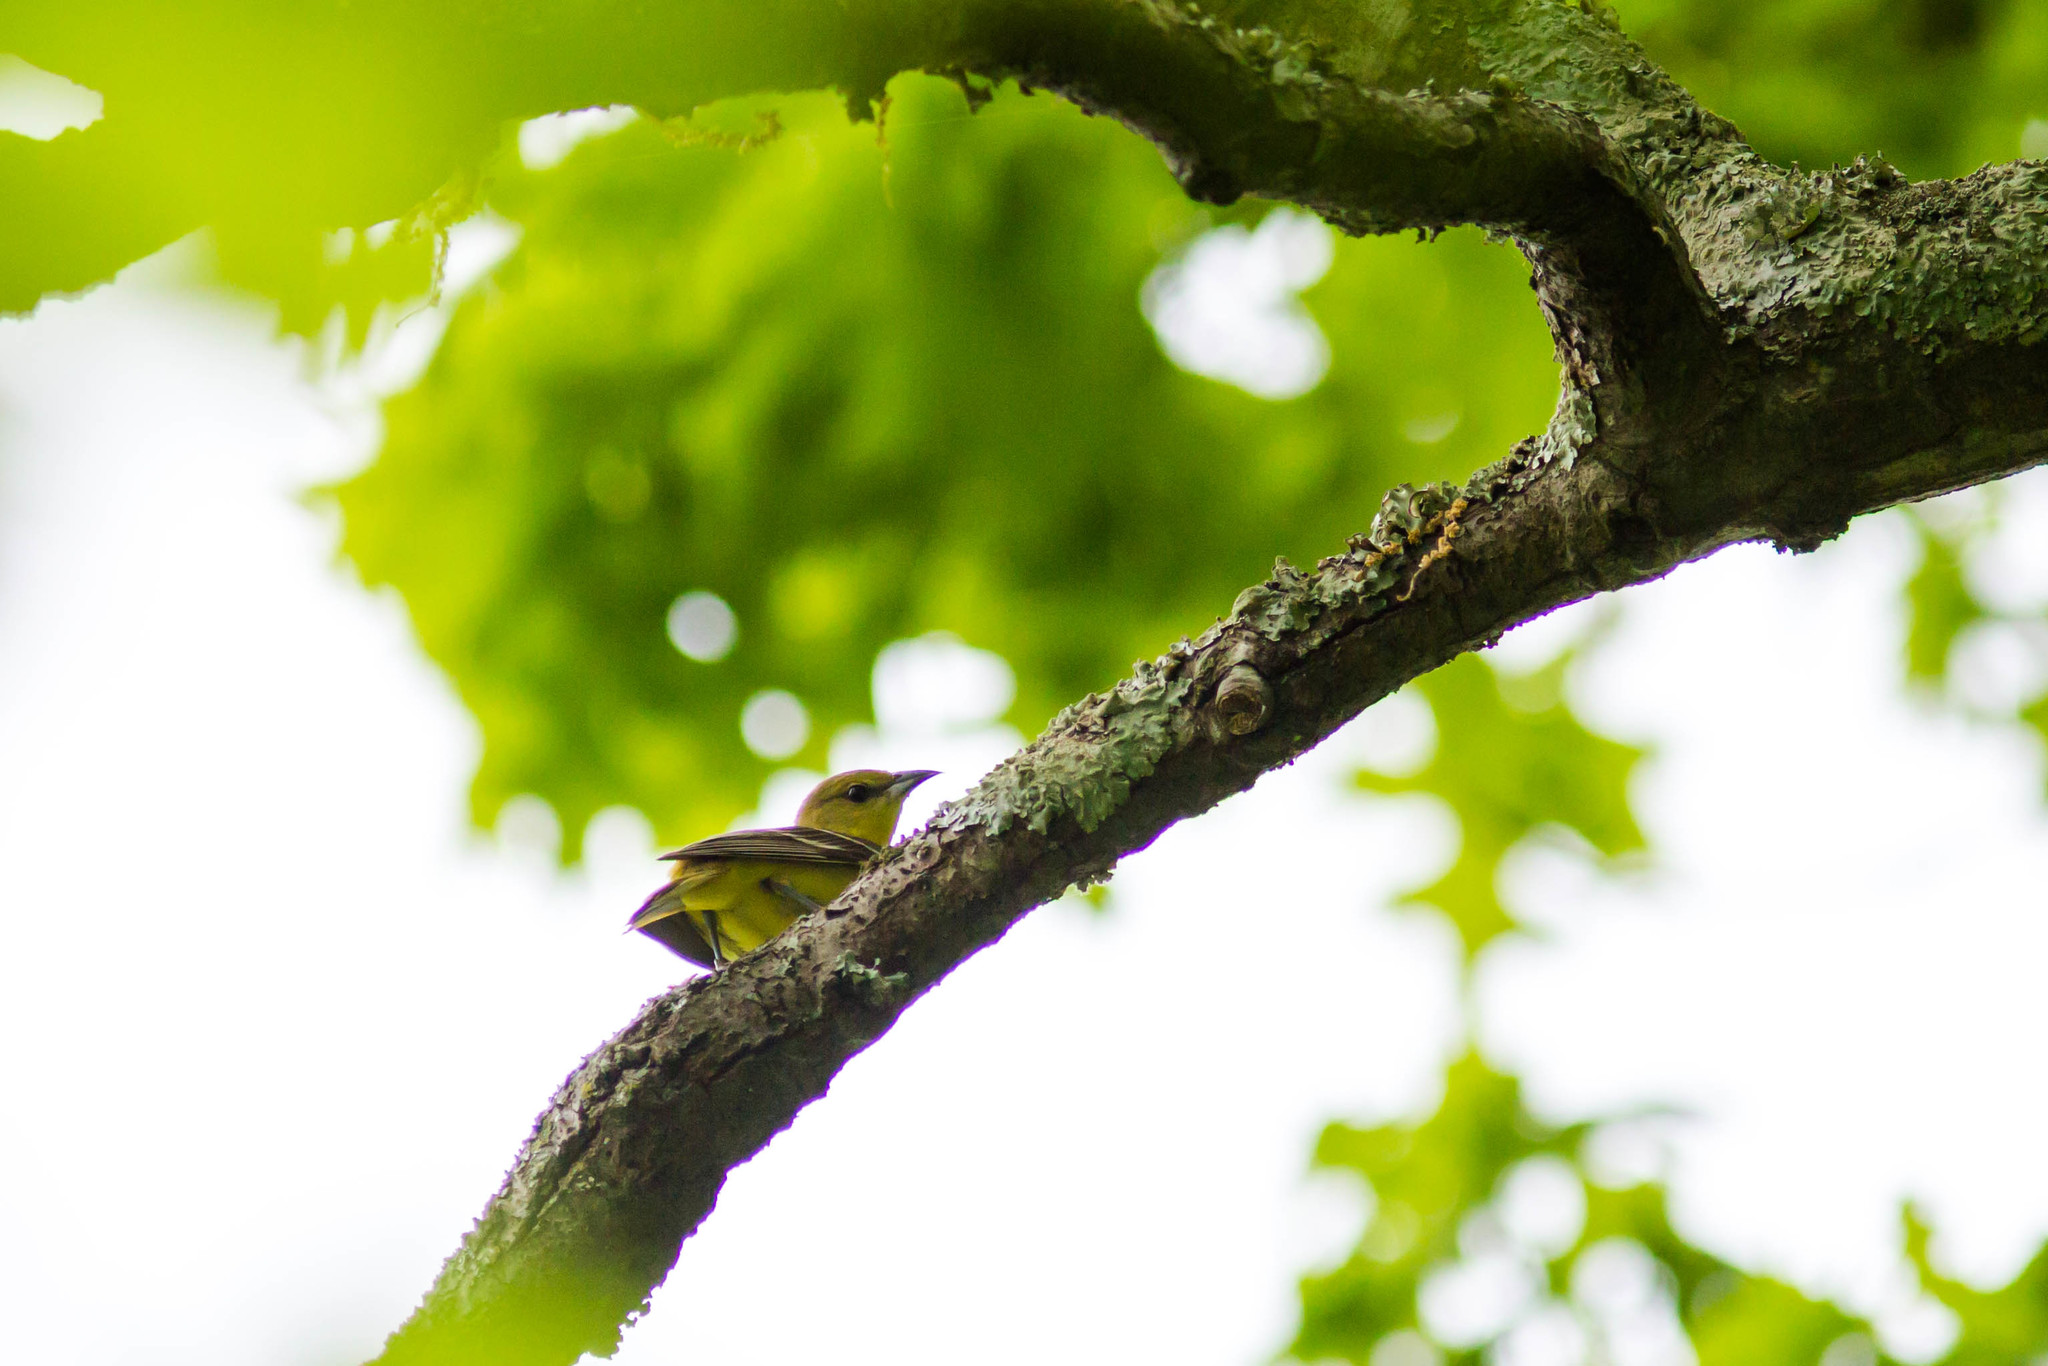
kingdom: Animalia
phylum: Chordata
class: Aves
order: Passeriformes
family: Icteridae
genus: Icterus
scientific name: Icterus spurius
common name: Orchard oriole
